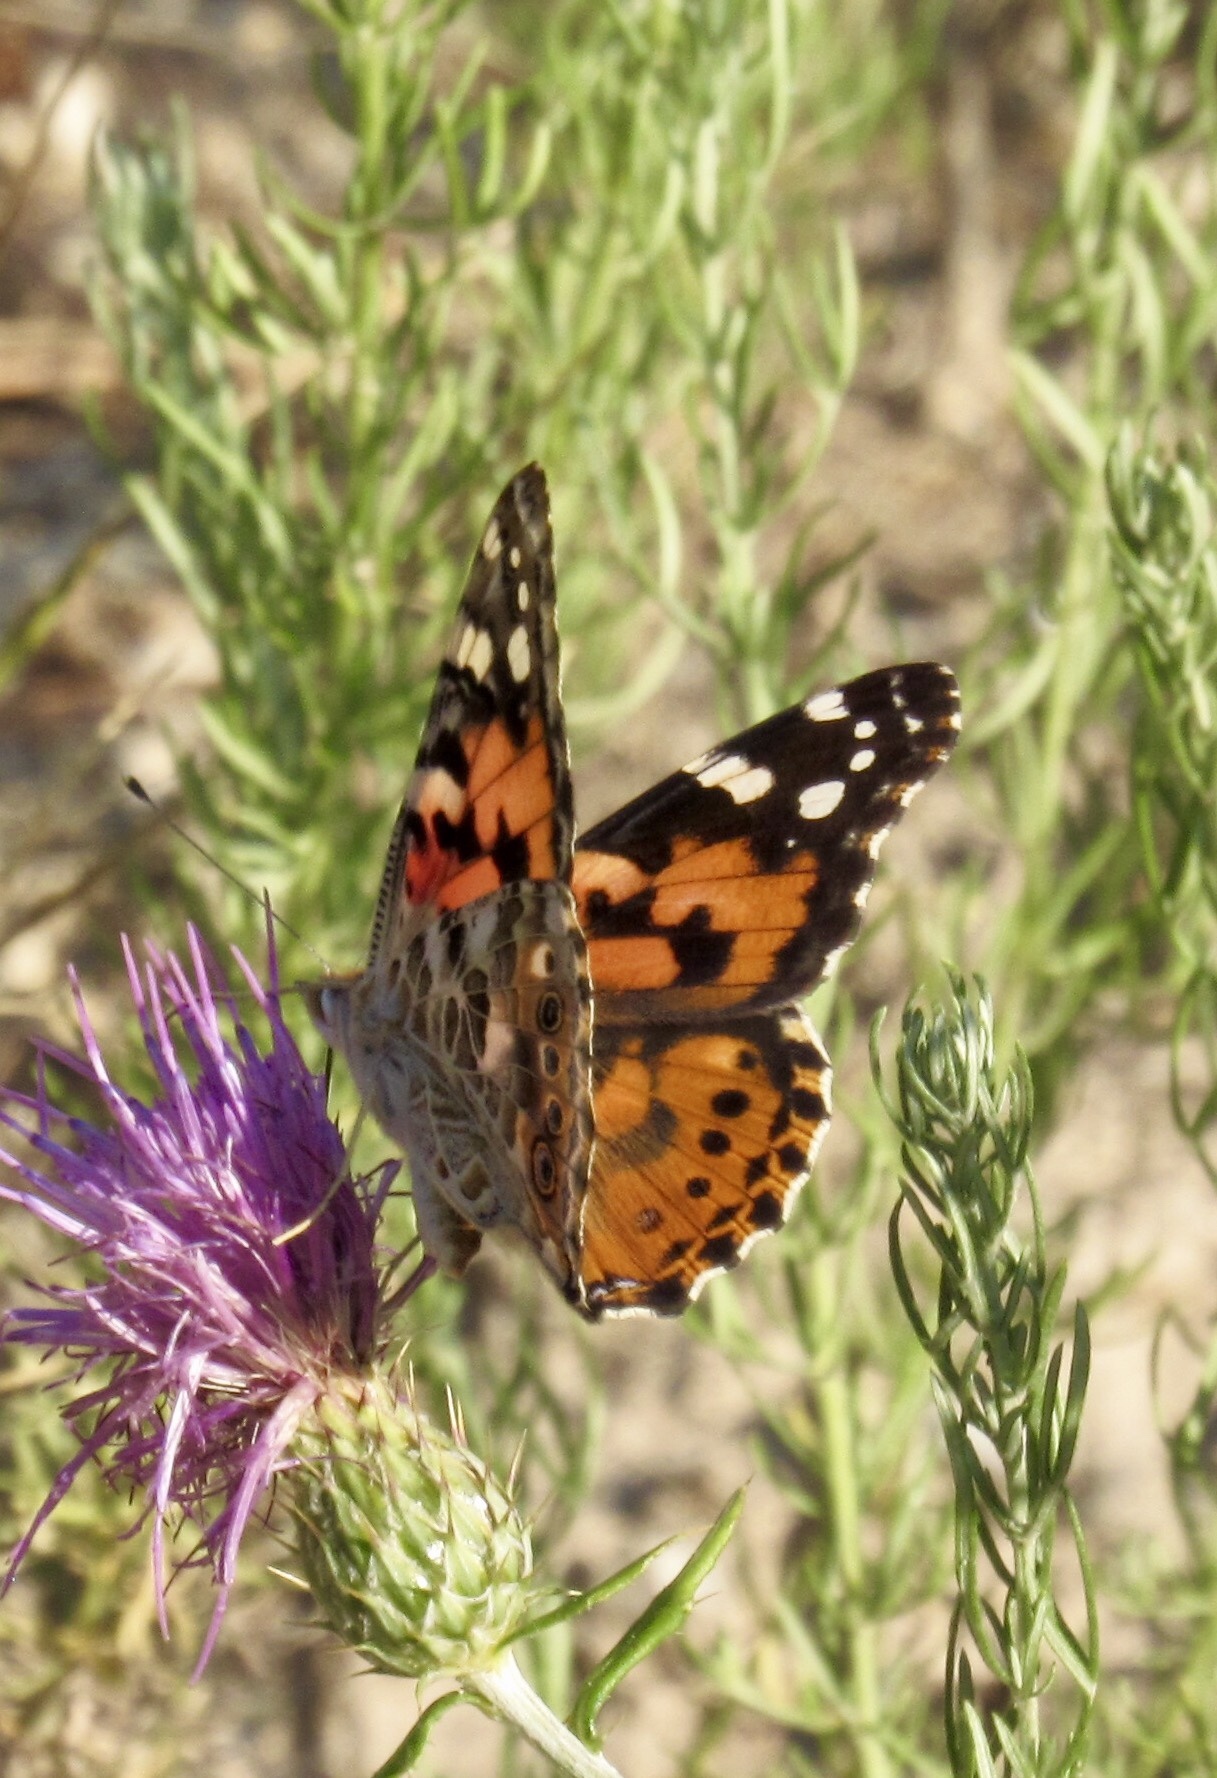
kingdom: Animalia
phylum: Arthropoda
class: Insecta
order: Lepidoptera
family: Nymphalidae
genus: Vanessa
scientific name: Vanessa cardui
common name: Painted lady
